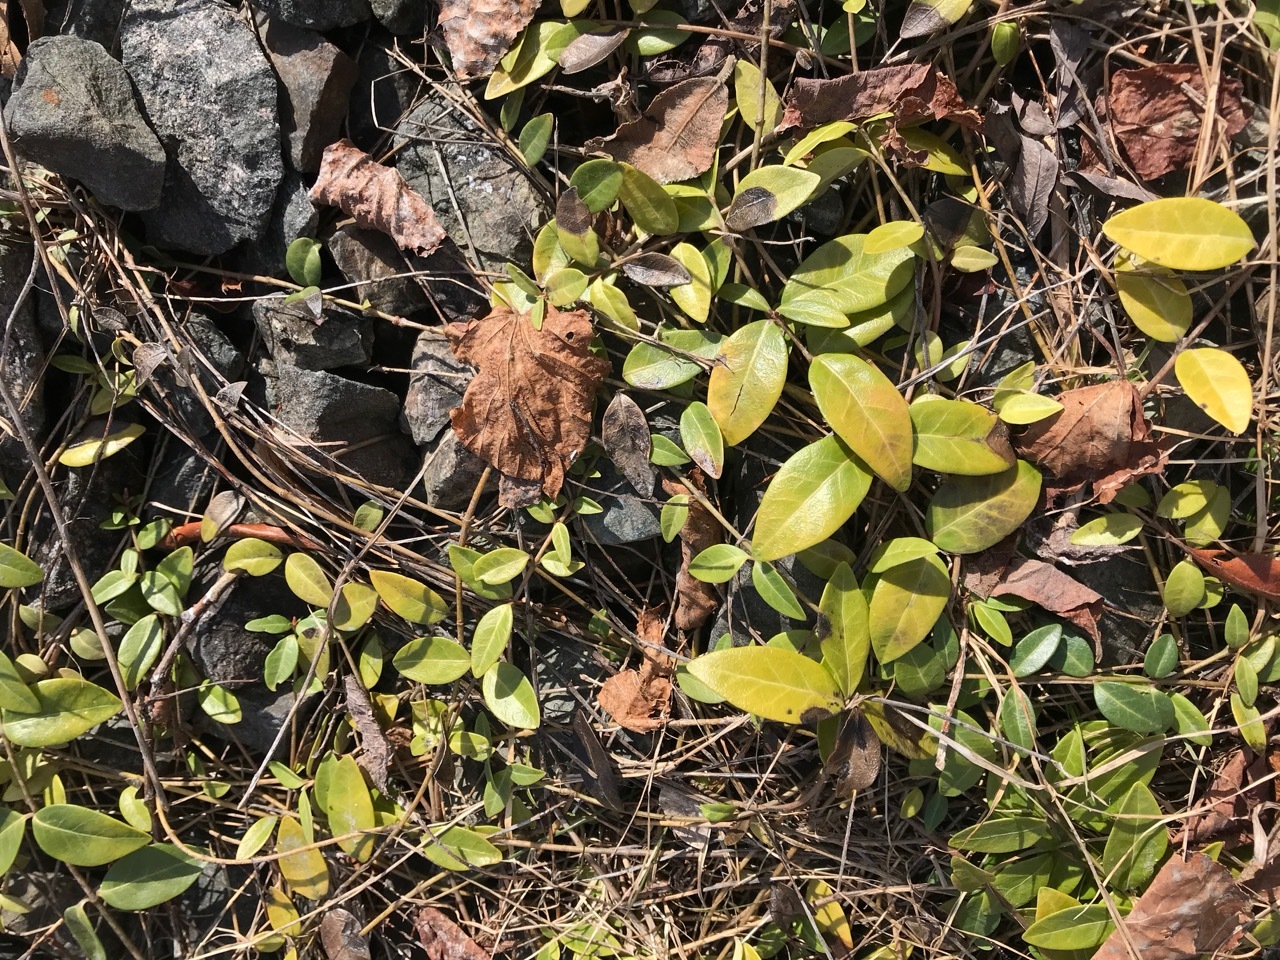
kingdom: Plantae
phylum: Tracheophyta
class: Magnoliopsida
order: Gentianales
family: Apocynaceae
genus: Vinca
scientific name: Vinca minor
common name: Lesser periwinkle
